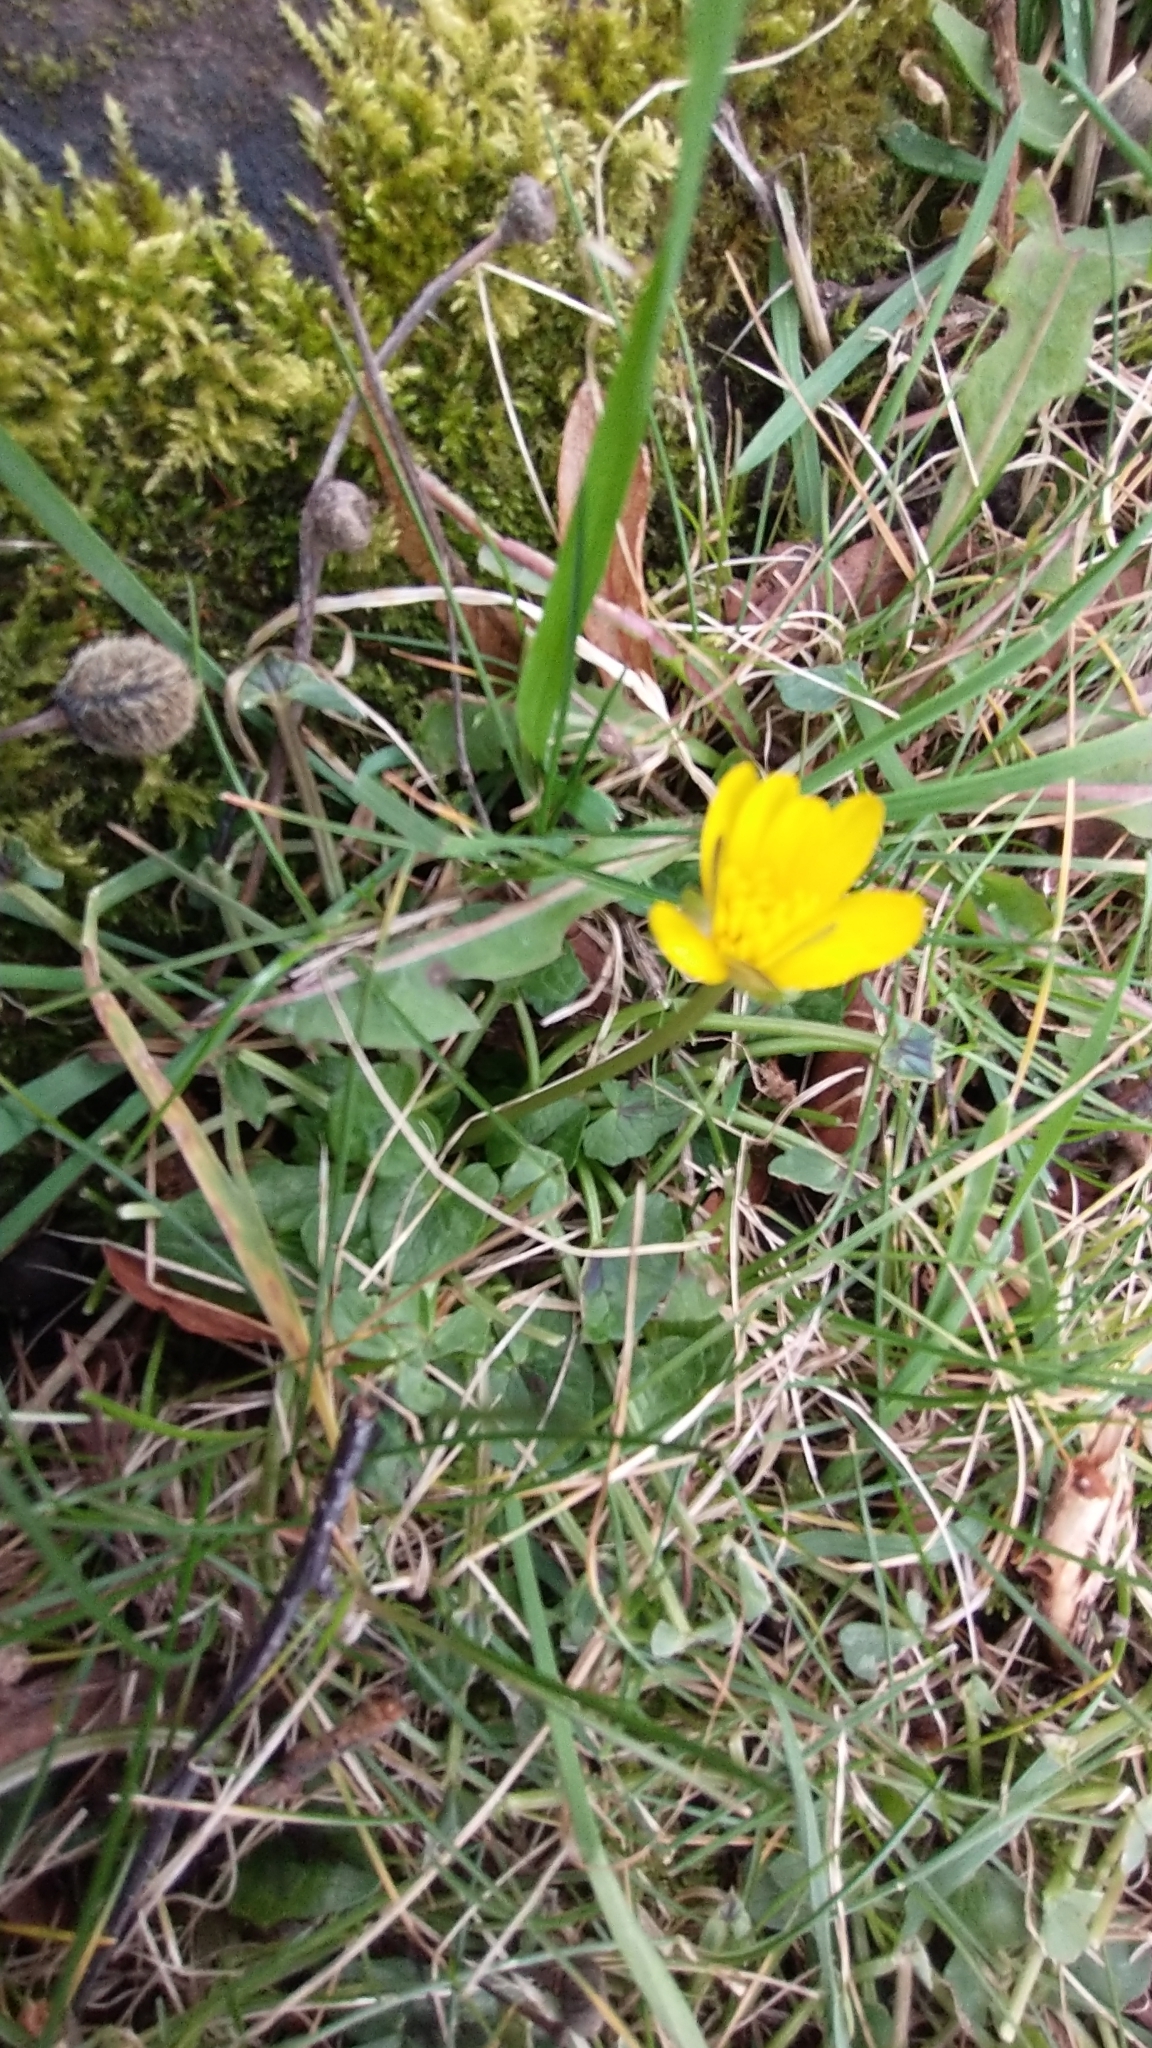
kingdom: Plantae
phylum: Tracheophyta
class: Magnoliopsida
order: Ranunculales
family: Ranunculaceae
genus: Ficaria
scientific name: Ficaria verna
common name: Lesser celandine
